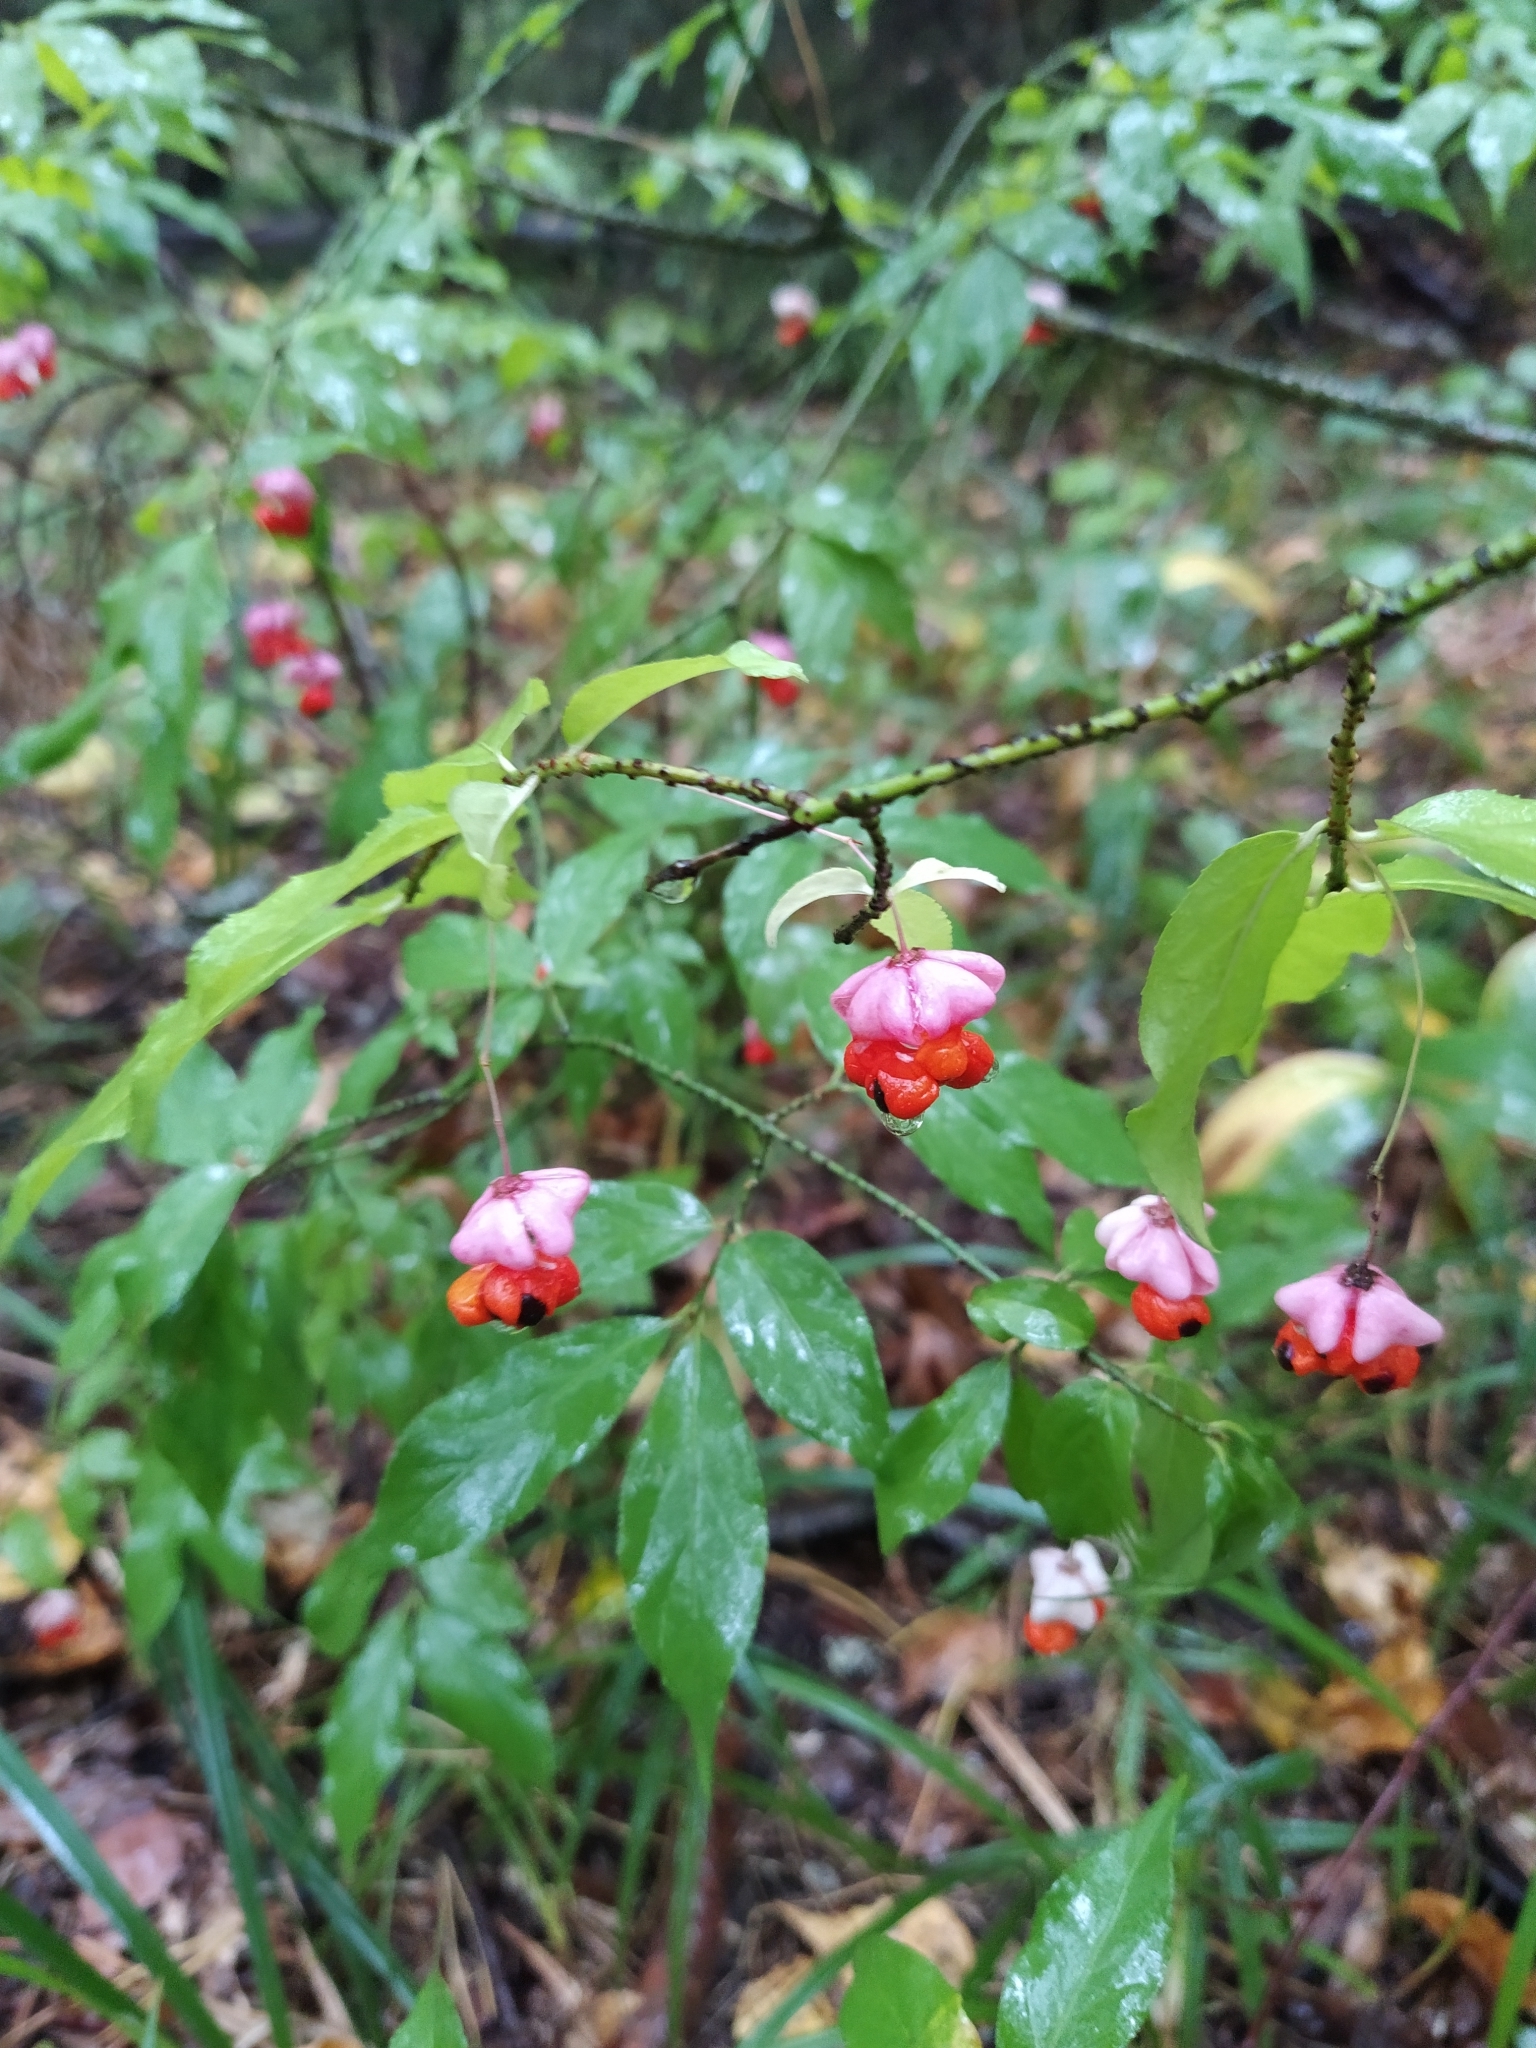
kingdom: Plantae
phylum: Tracheophyta
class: Magnoliopsida
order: Celastrales
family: Celastraceae
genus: Euonymus
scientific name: Euonymus verrucosus
